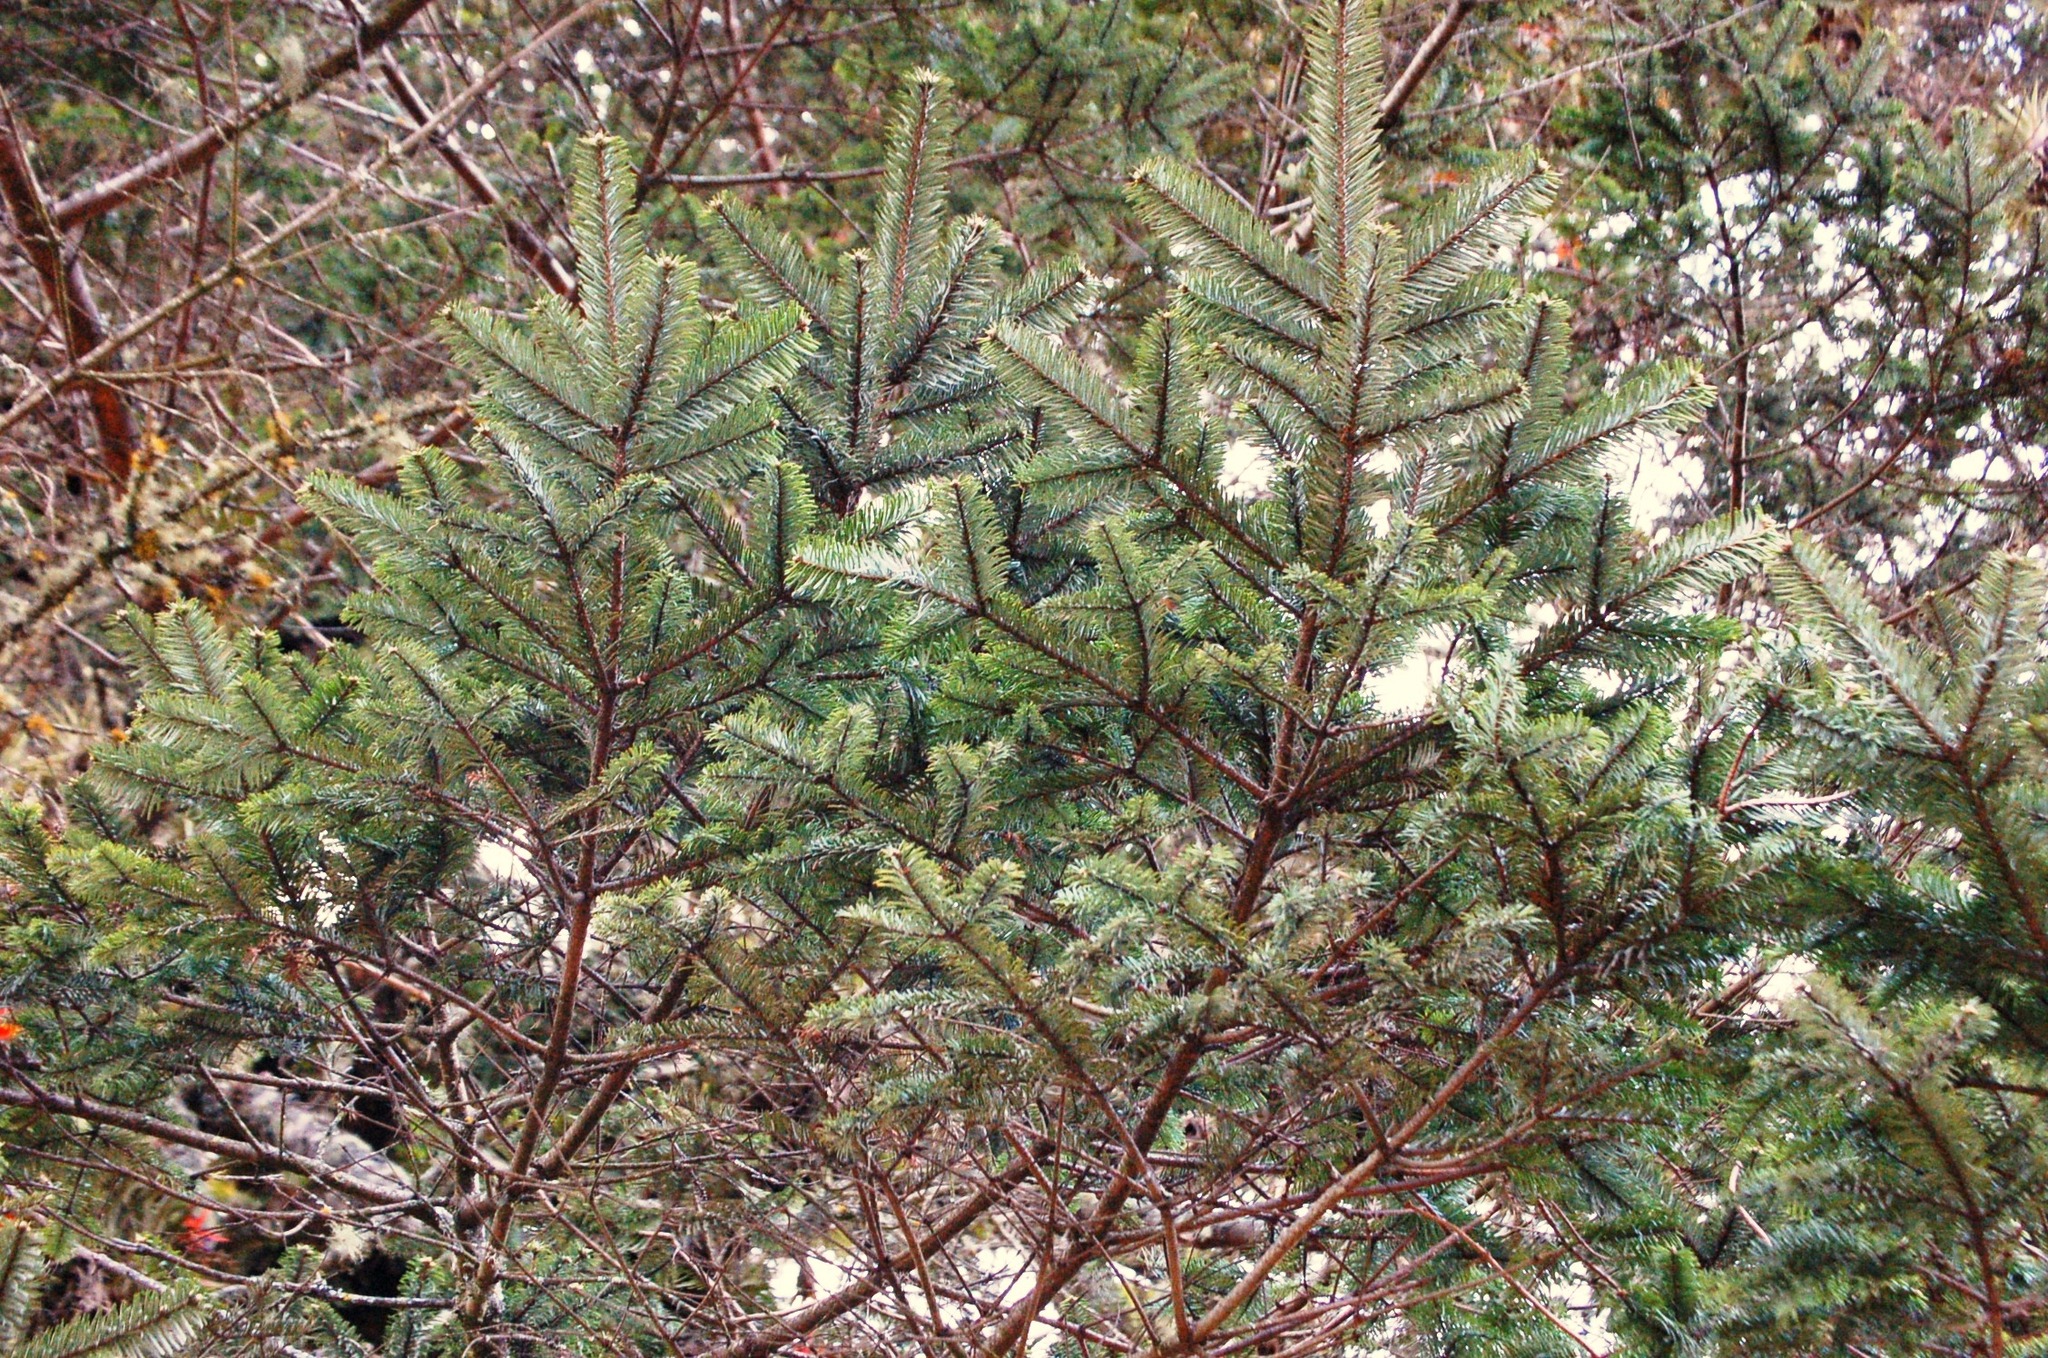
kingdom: Plantae
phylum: Tracheophyta
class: Pinopsida
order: Pinales
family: Pinaceae
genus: Abies
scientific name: Abies guatemalensis
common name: Guatemalan fir
